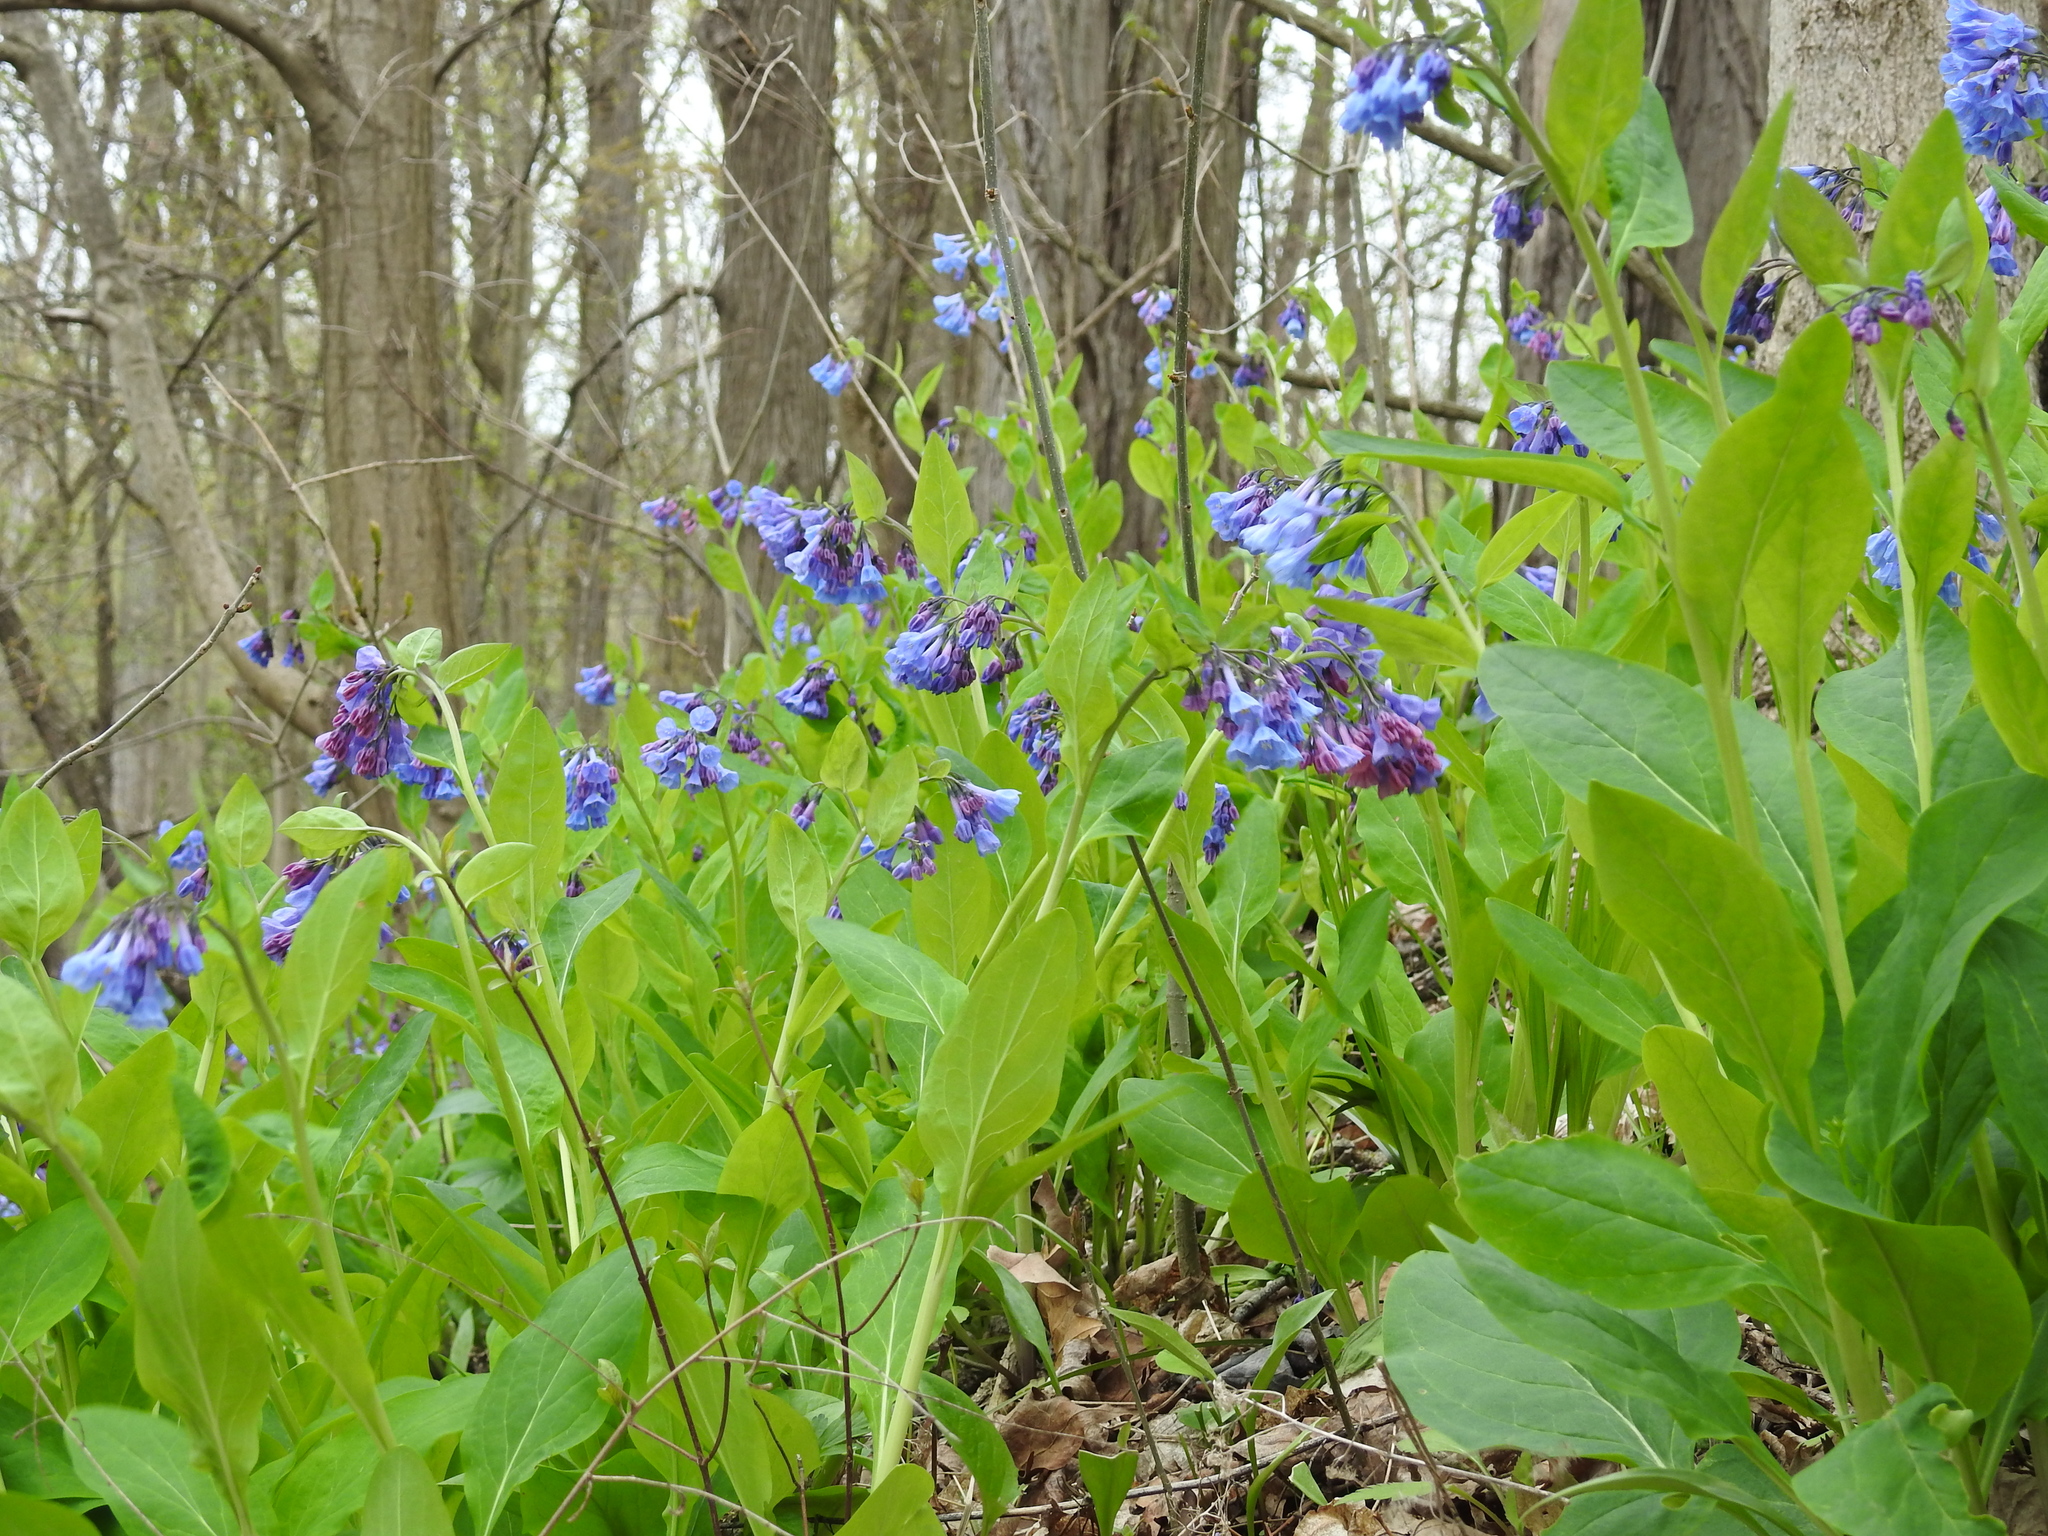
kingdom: Plantae
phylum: Tracheophyta
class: Magnoliopsida
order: Boraginales
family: Boraginaceae
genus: Mertensia
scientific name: Mertensia virginica
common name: Virginia bluebells
